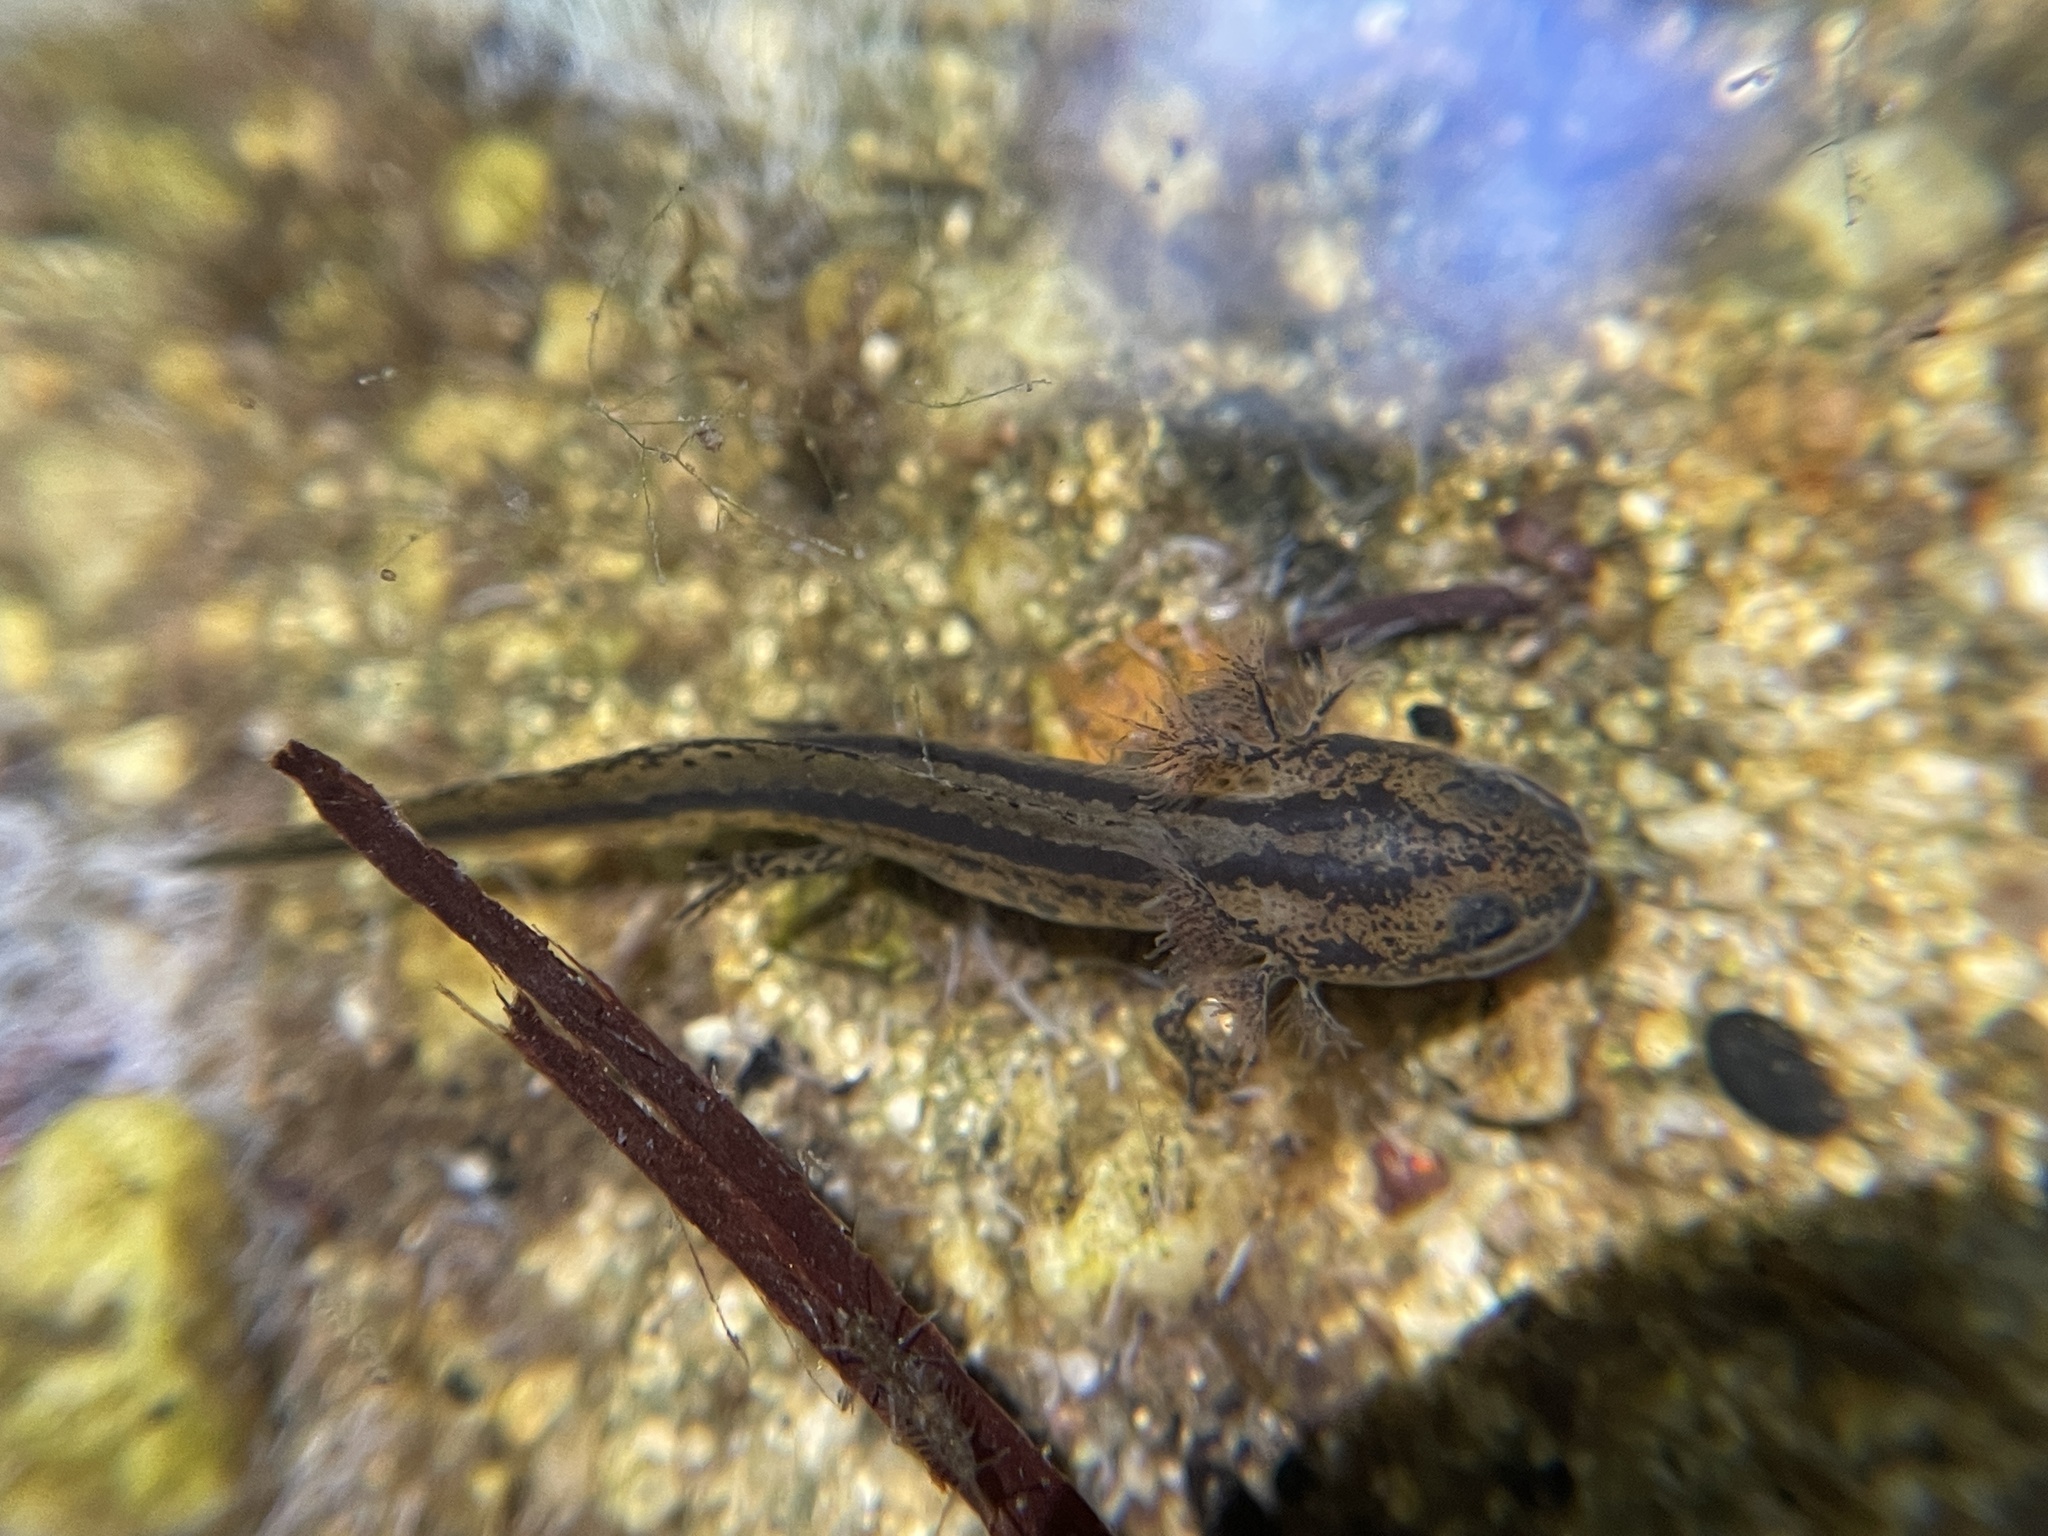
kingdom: Animalia
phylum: Chordata
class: Amphibia
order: Caudata
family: Salamandridae
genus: Taricha
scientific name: Taricha torosa
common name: California newt
